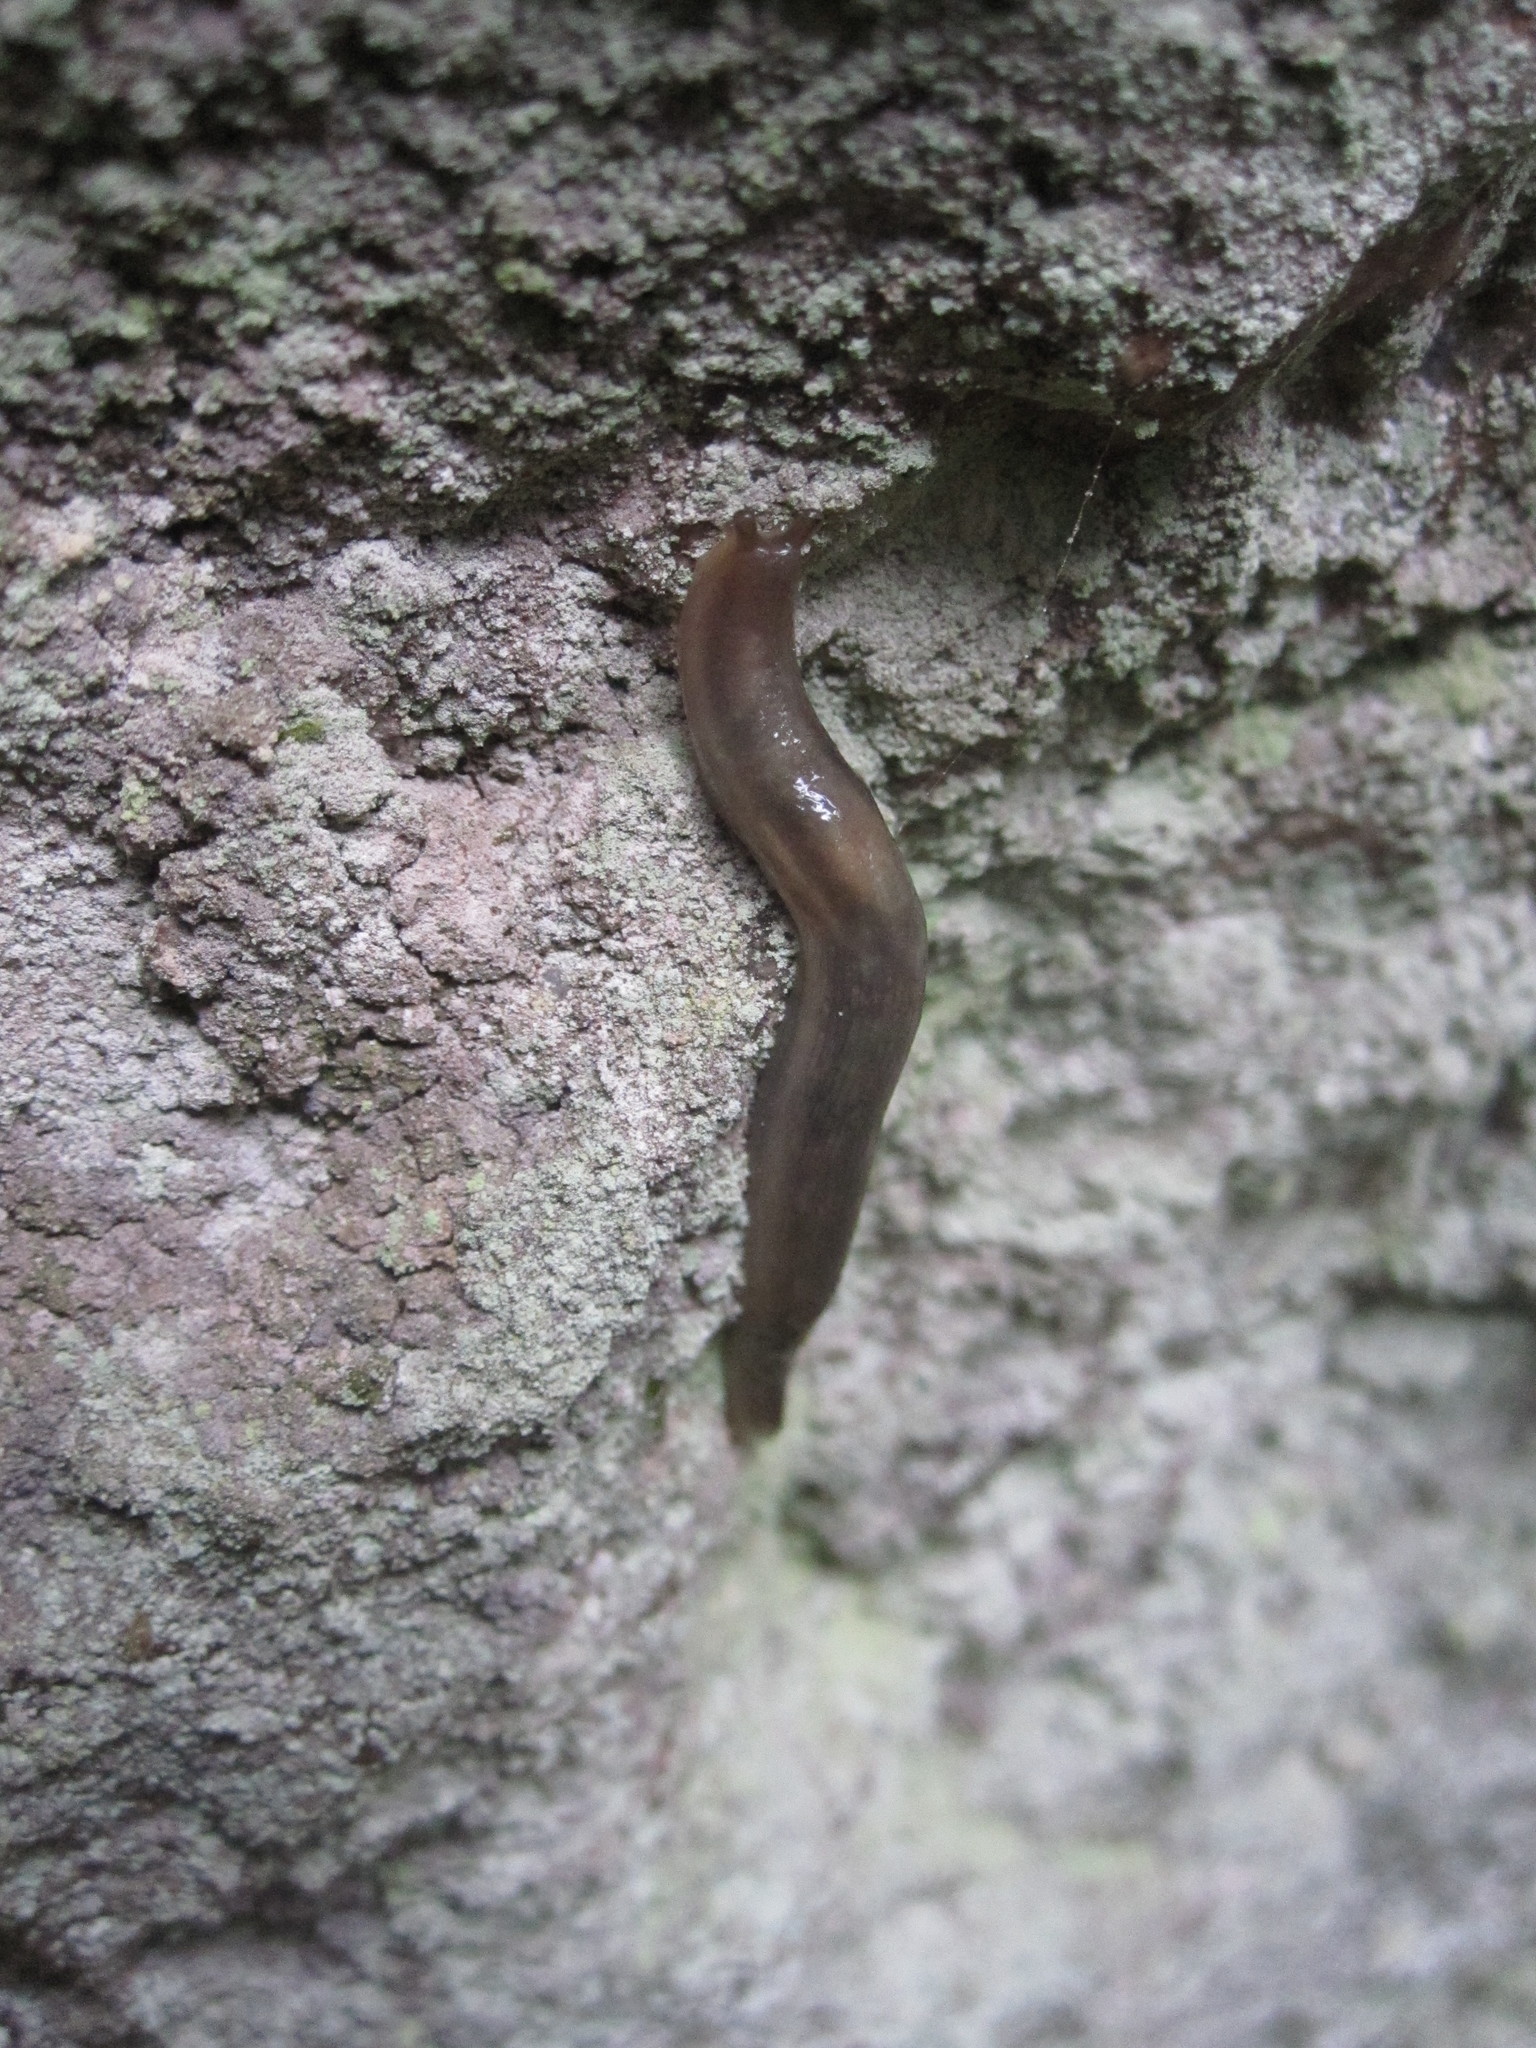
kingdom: Animalia
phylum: Mollusca
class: Gastropoda
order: Stylommatophora
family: Limacidae
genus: Lehmannia
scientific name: Lehmannia marginata
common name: Tree slug
